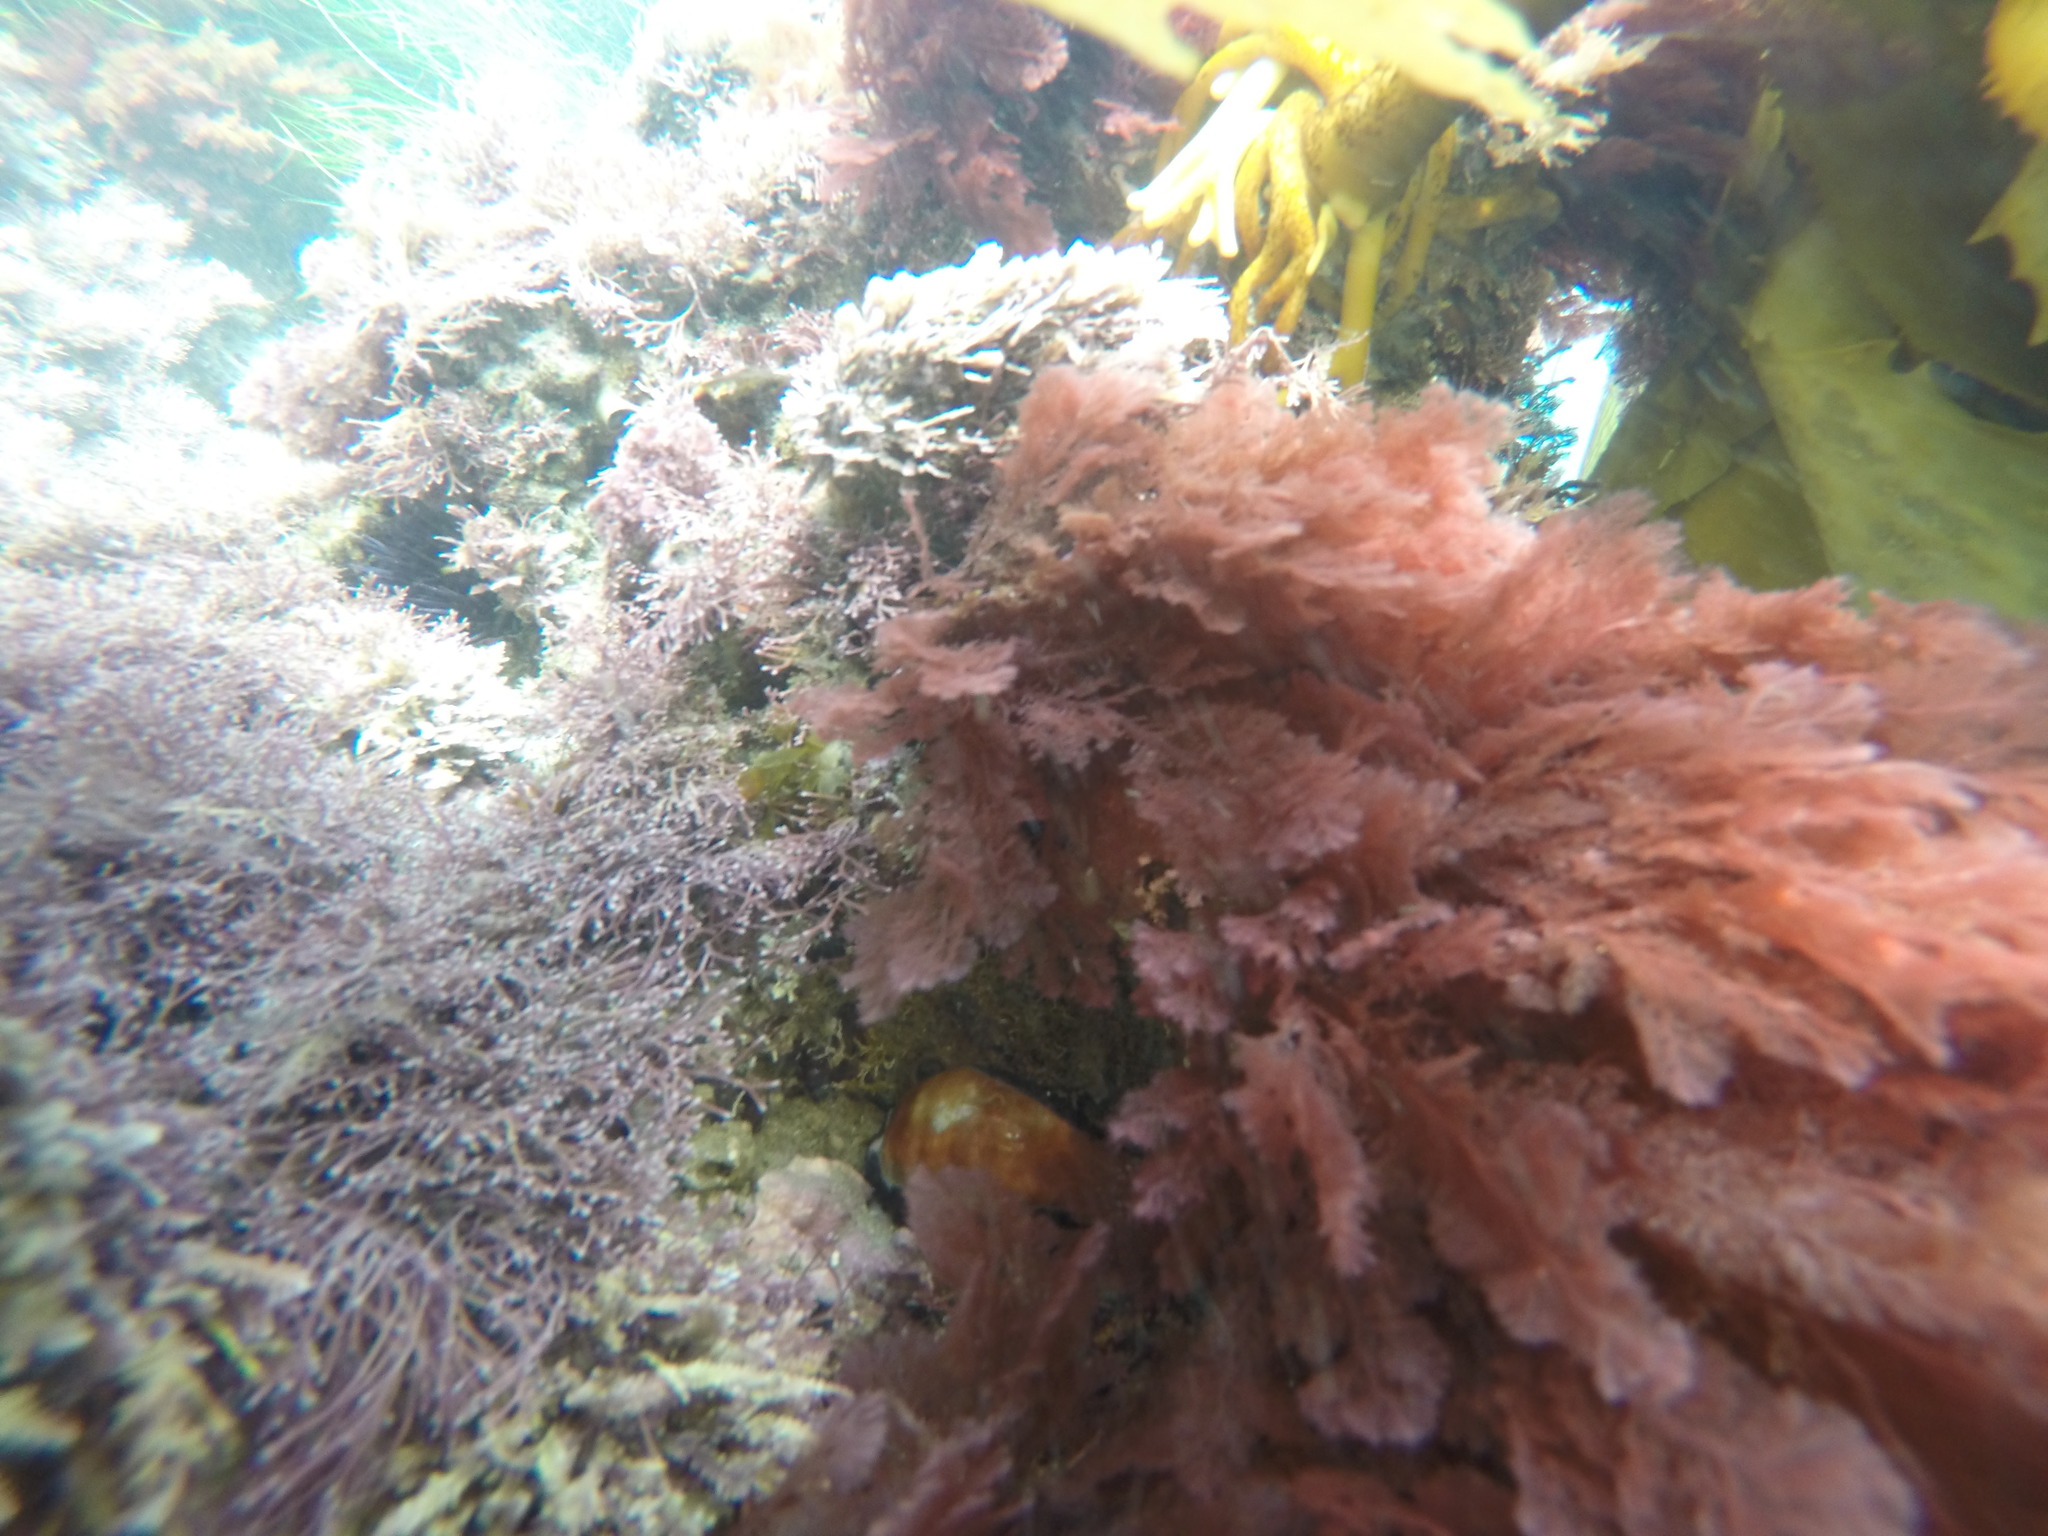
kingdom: Animalia
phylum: Mollusca
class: Gastropoda
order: Littorinimorpha
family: Cypraeidae
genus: Neobernaya
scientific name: Neobernaya spadicea
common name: Chestnut cowrie
